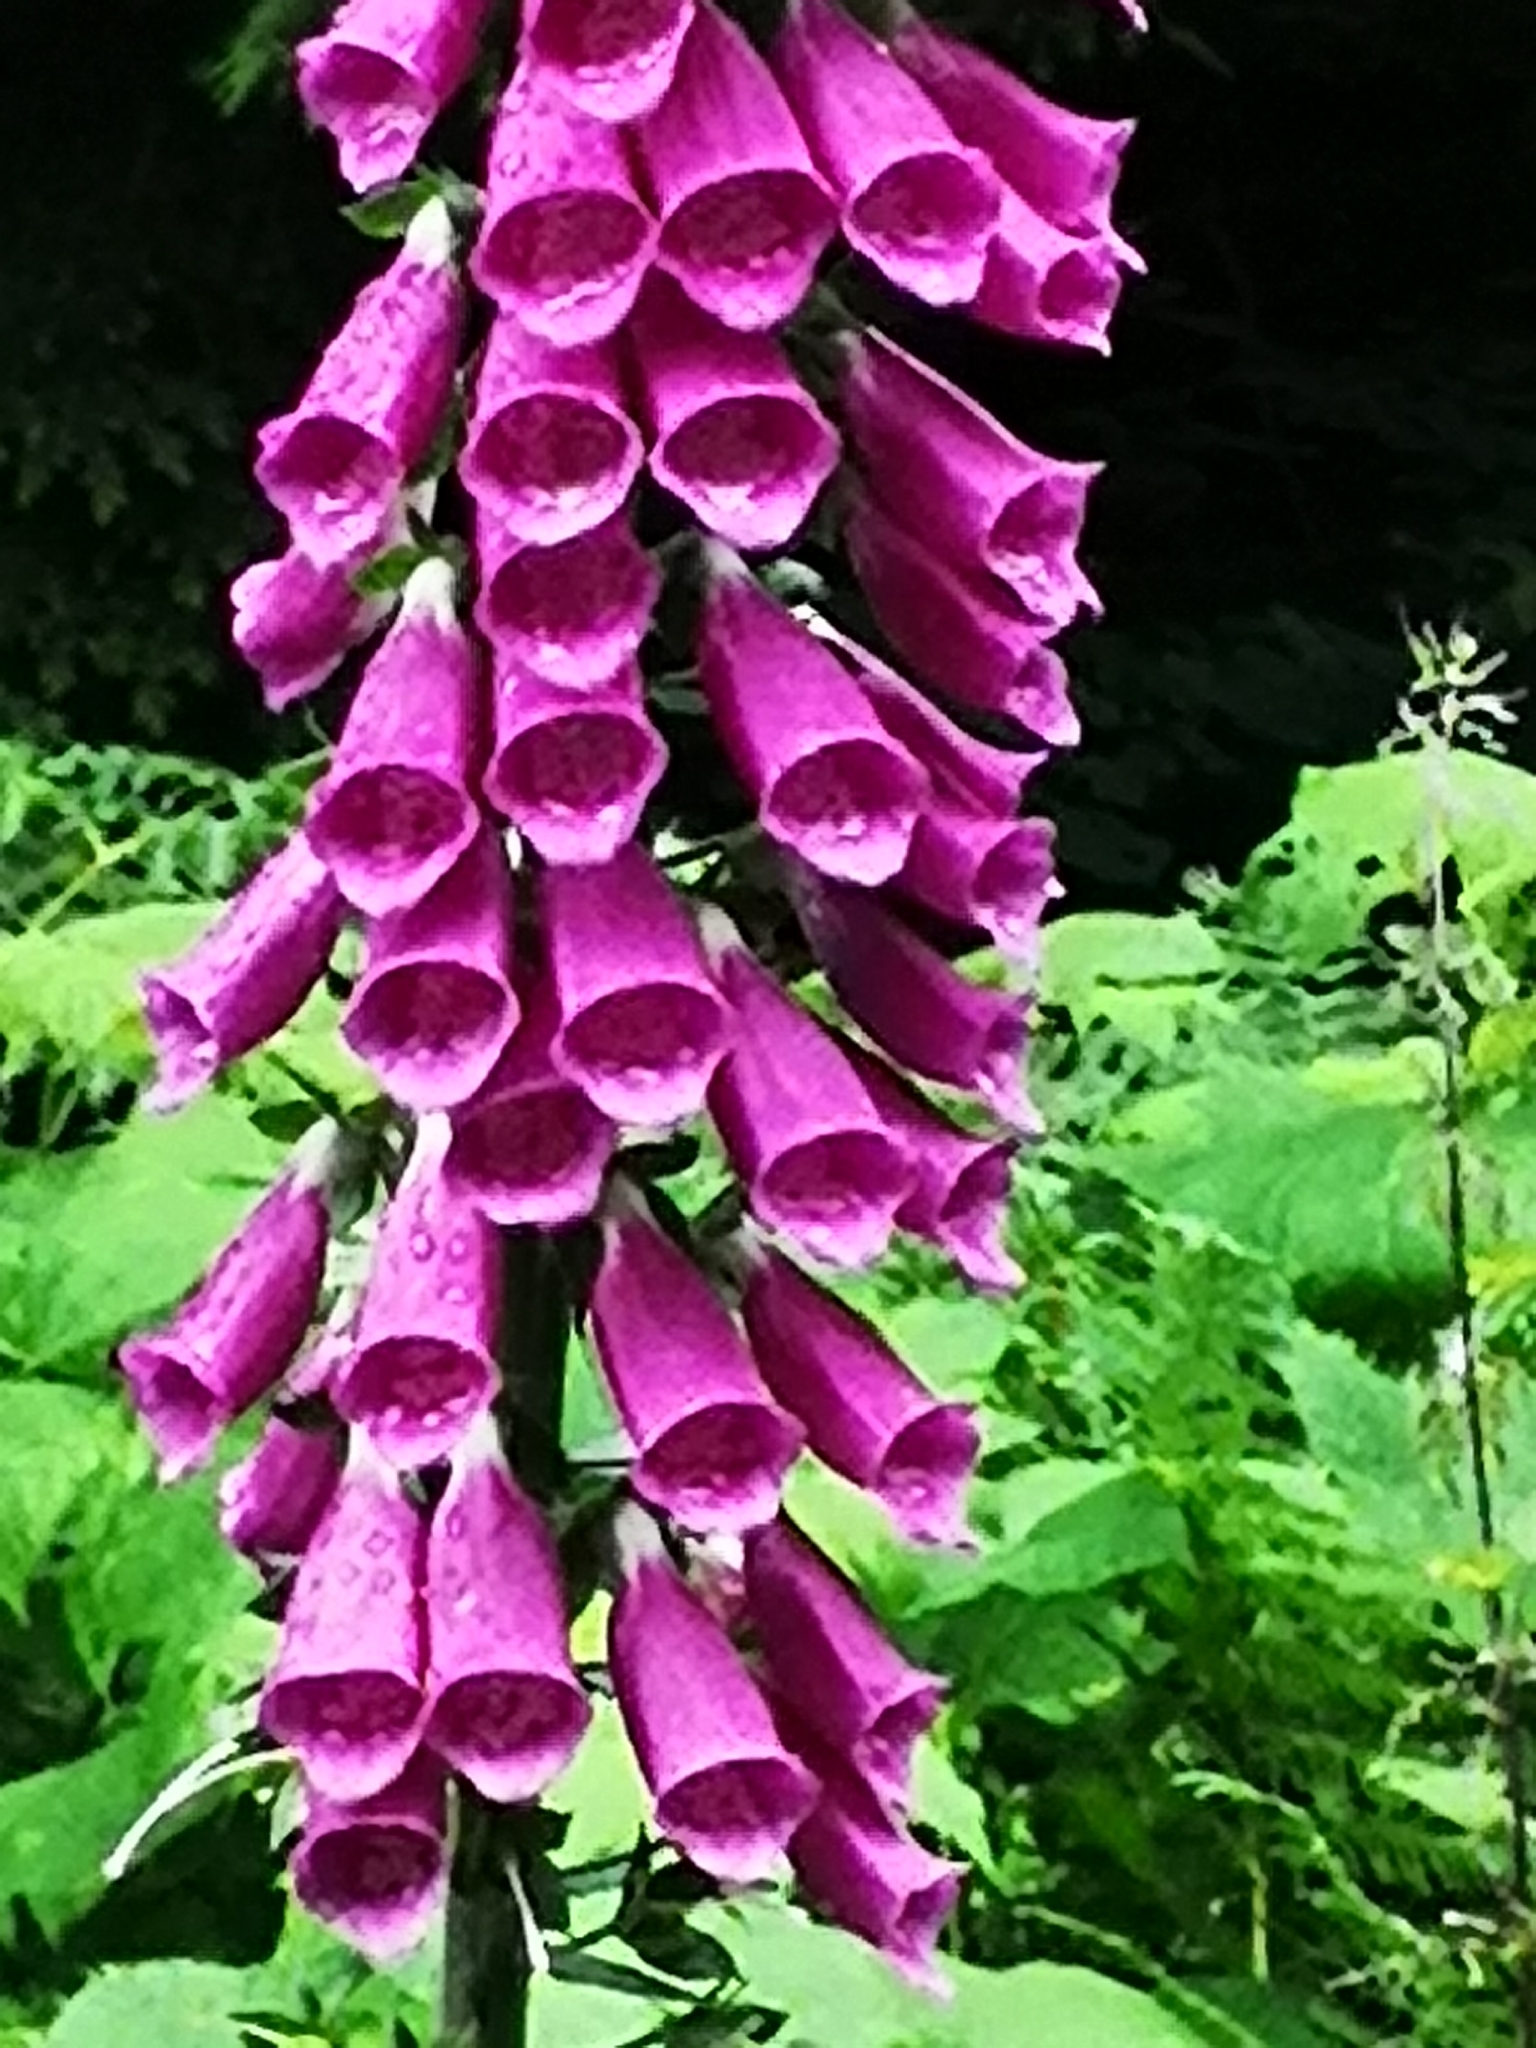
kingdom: Plantae
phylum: Tracheophyta
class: Magnoliopsida
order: Lamiales
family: Plantaginaceae
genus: Digitalis
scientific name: Digitalis purpurea
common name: Foxglove
